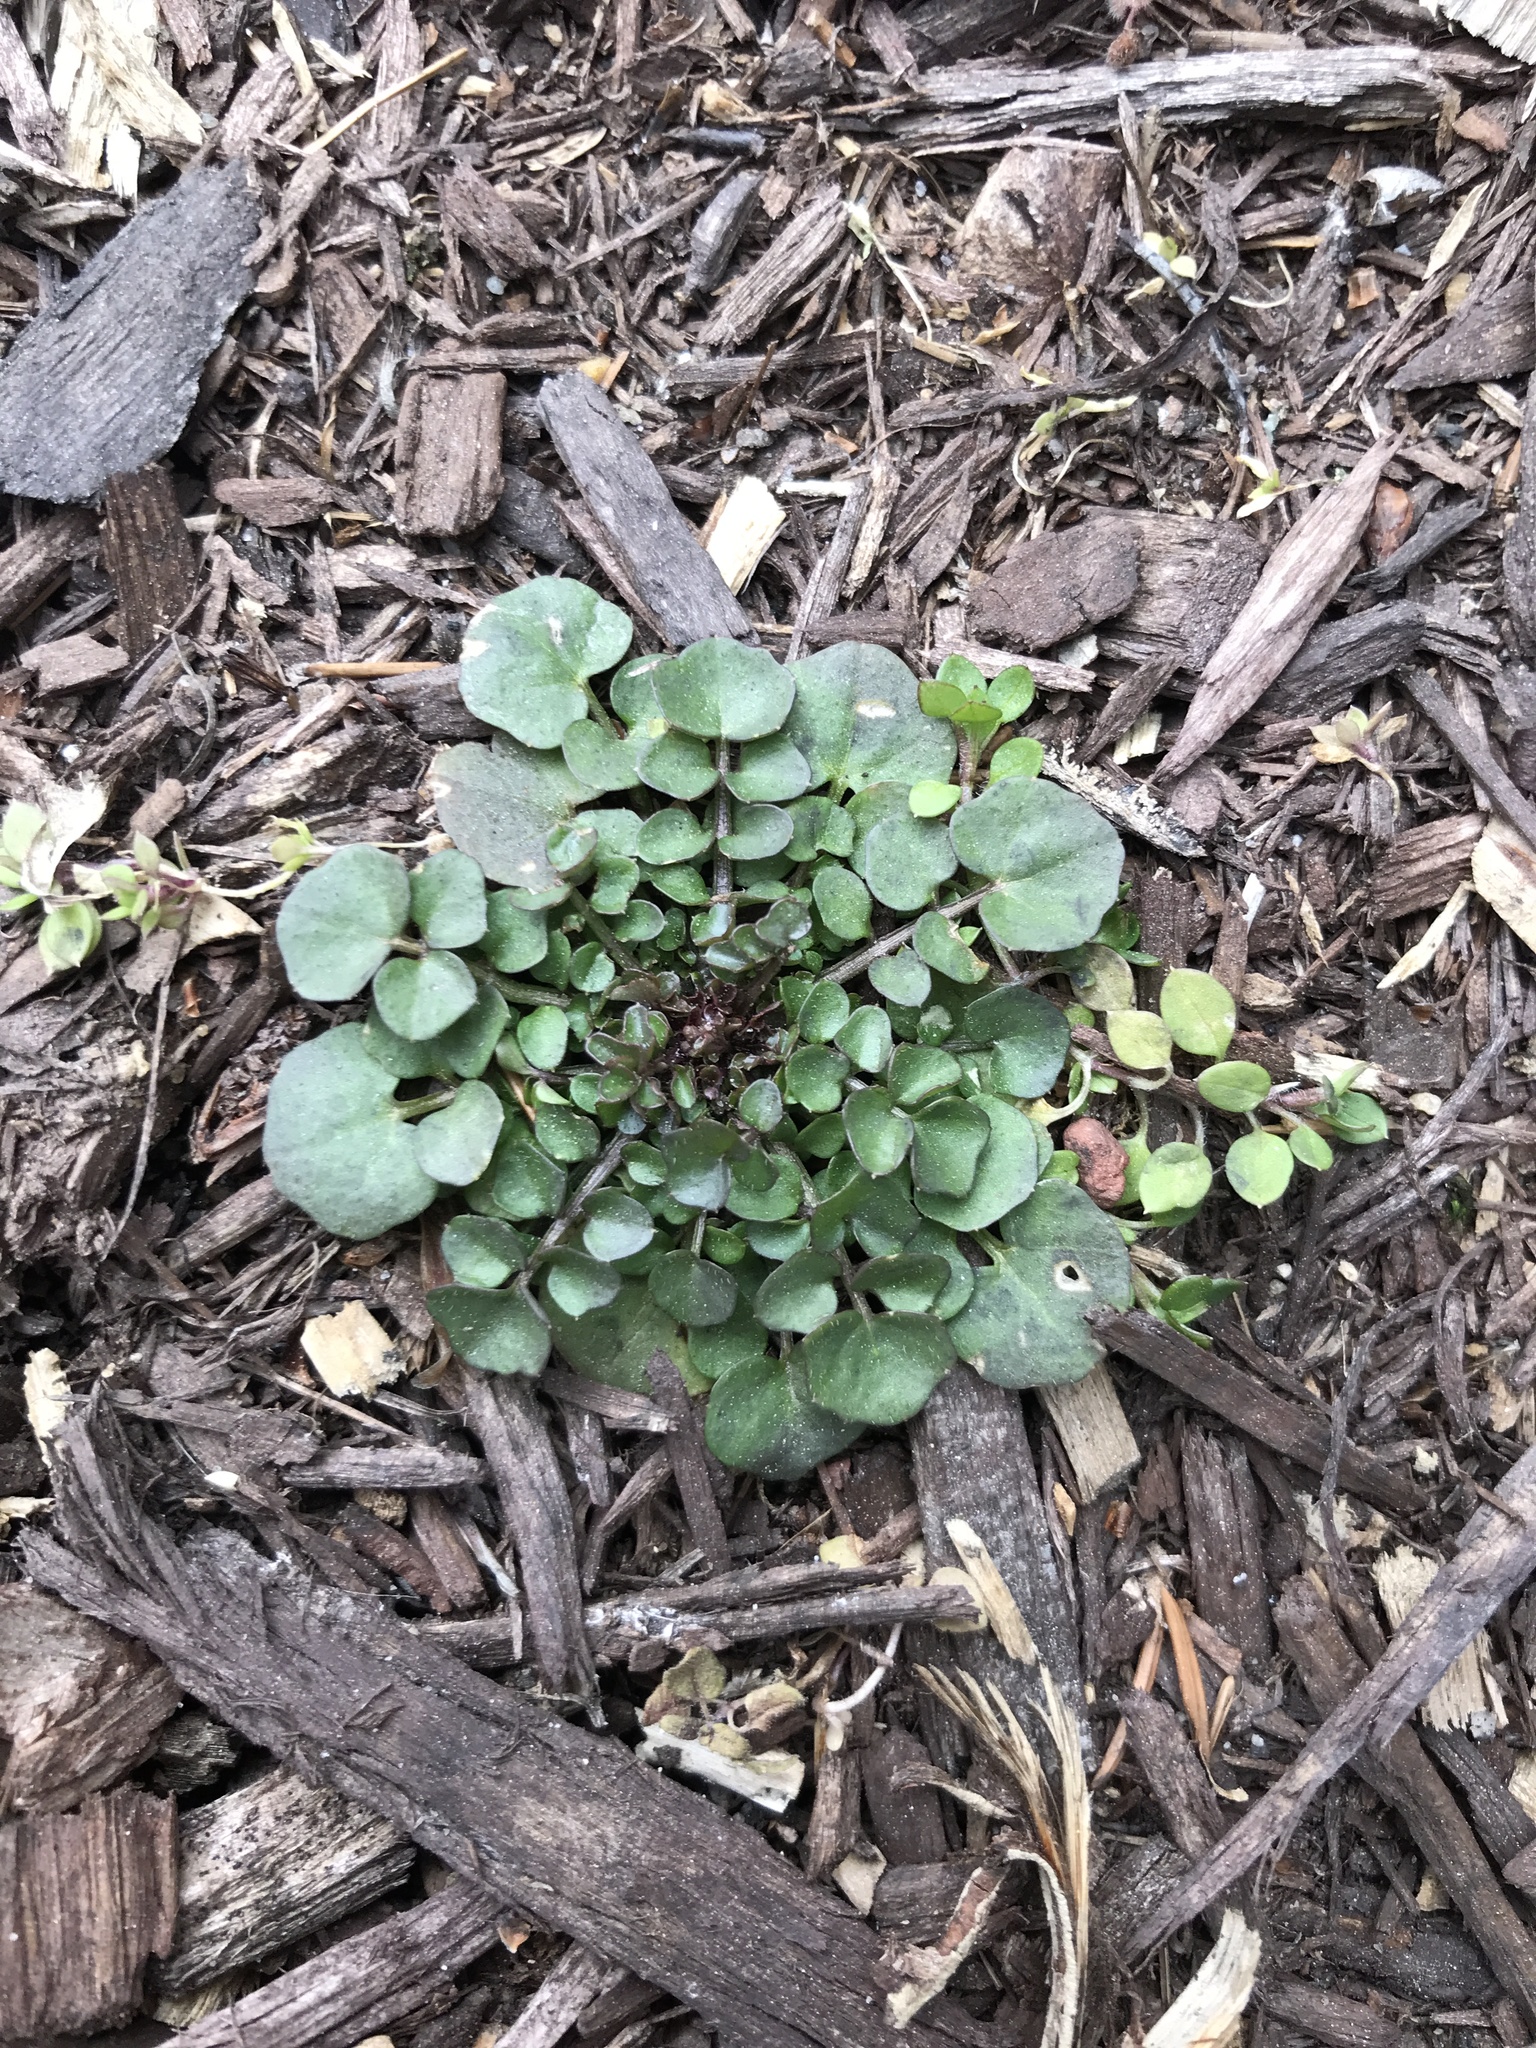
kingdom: Plantae
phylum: Tracheophyta
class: Magnoliopsida
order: Brassicales
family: Brassicaceae
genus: Cardamine
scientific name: Cardamine hirsuta
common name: Hairy bittercress
